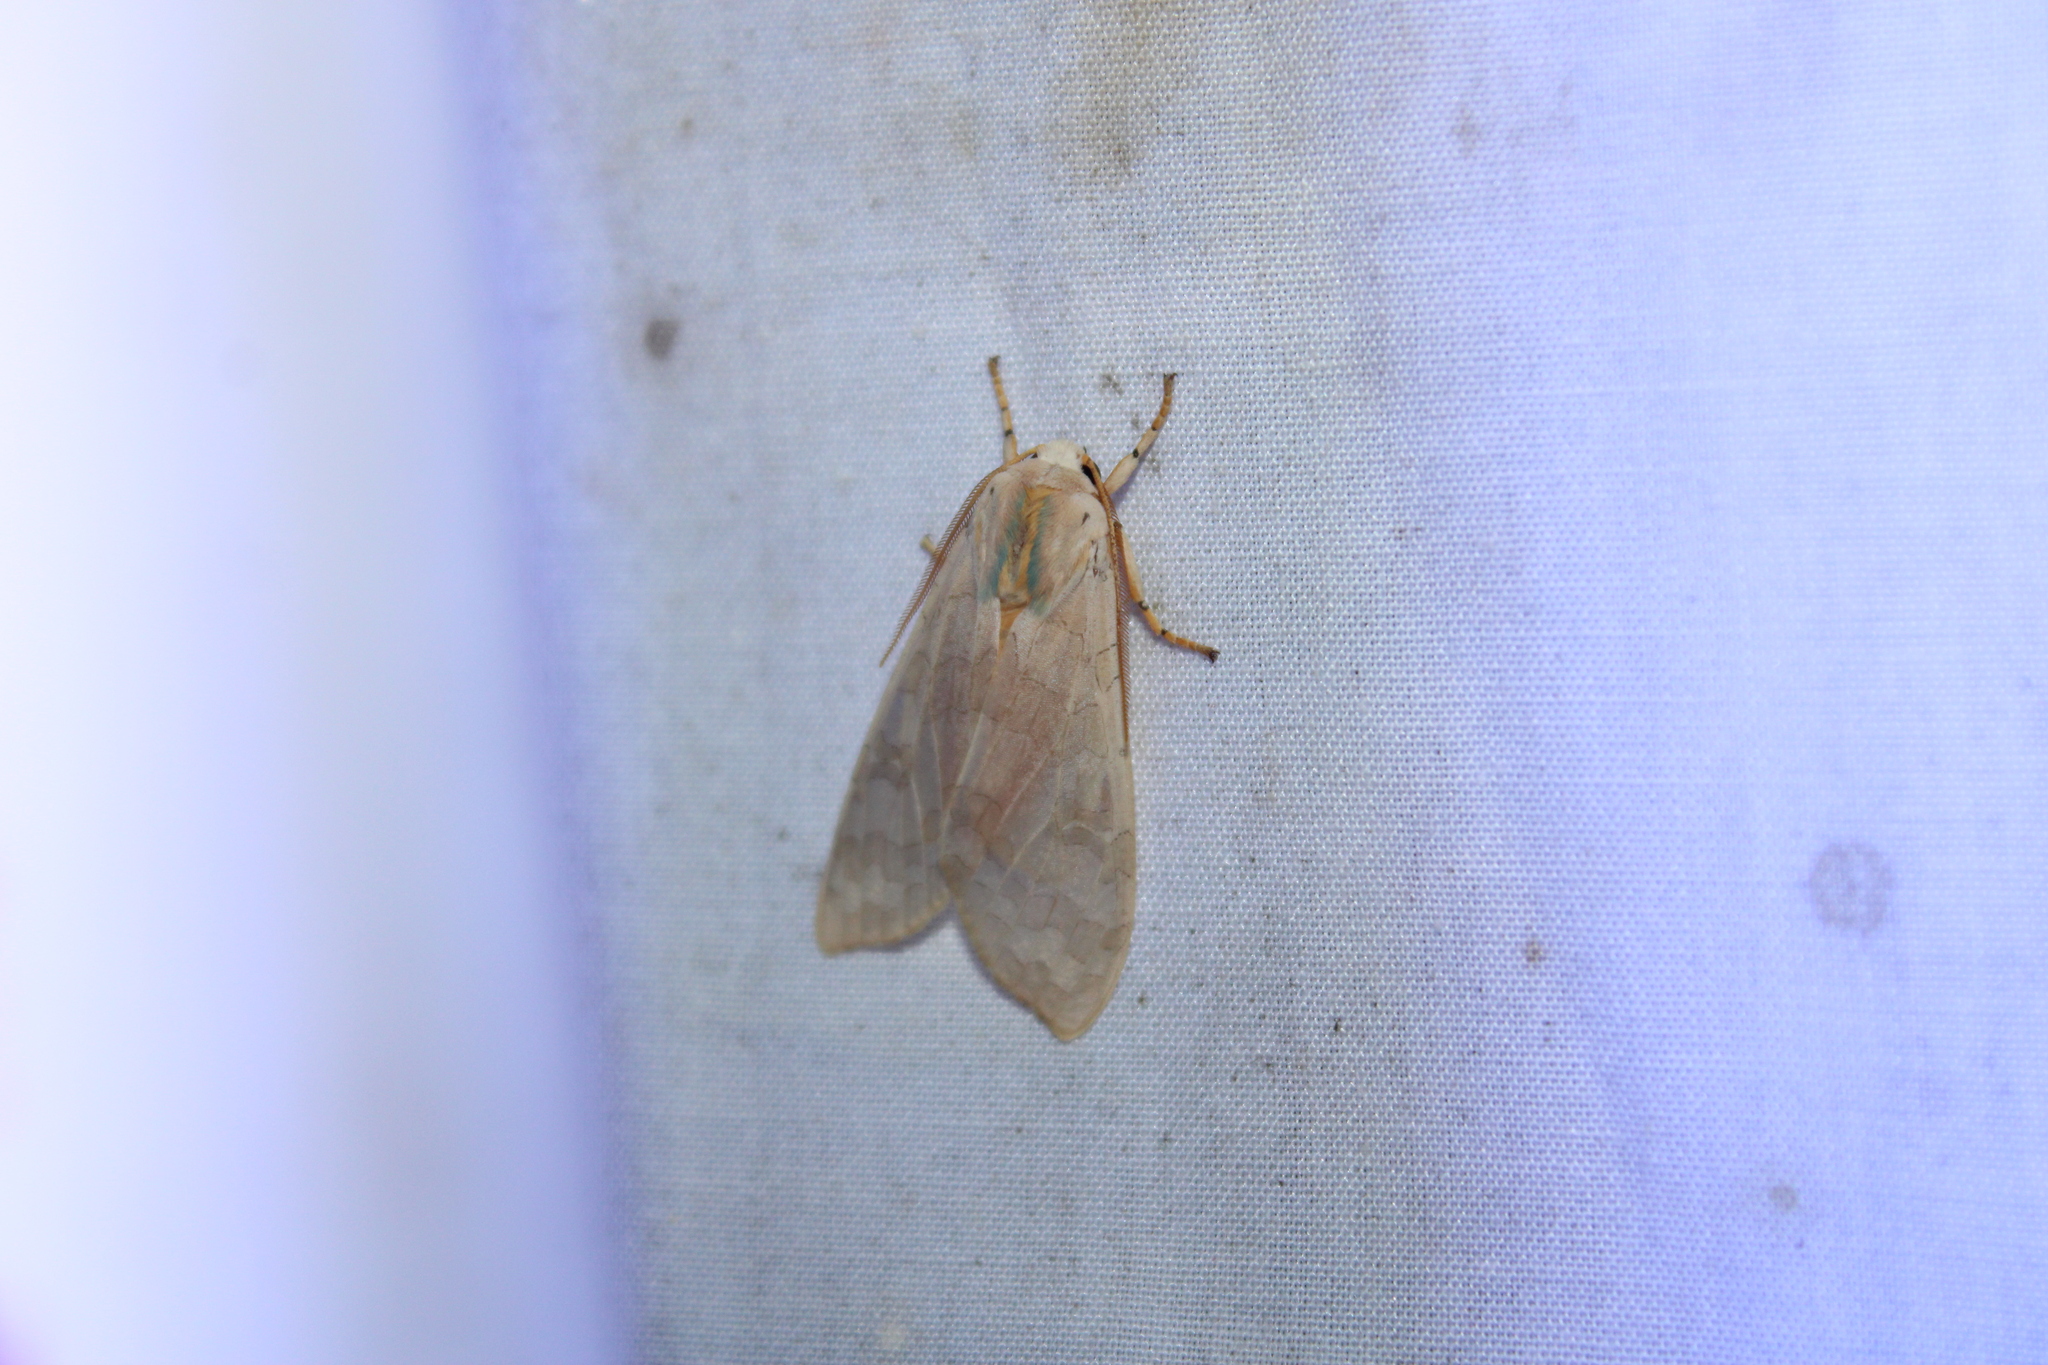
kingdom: Animalia
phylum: Arthropoda
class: Insecta
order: Lepidoptera
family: Erebidae
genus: Halysidota
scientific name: Halysidota
